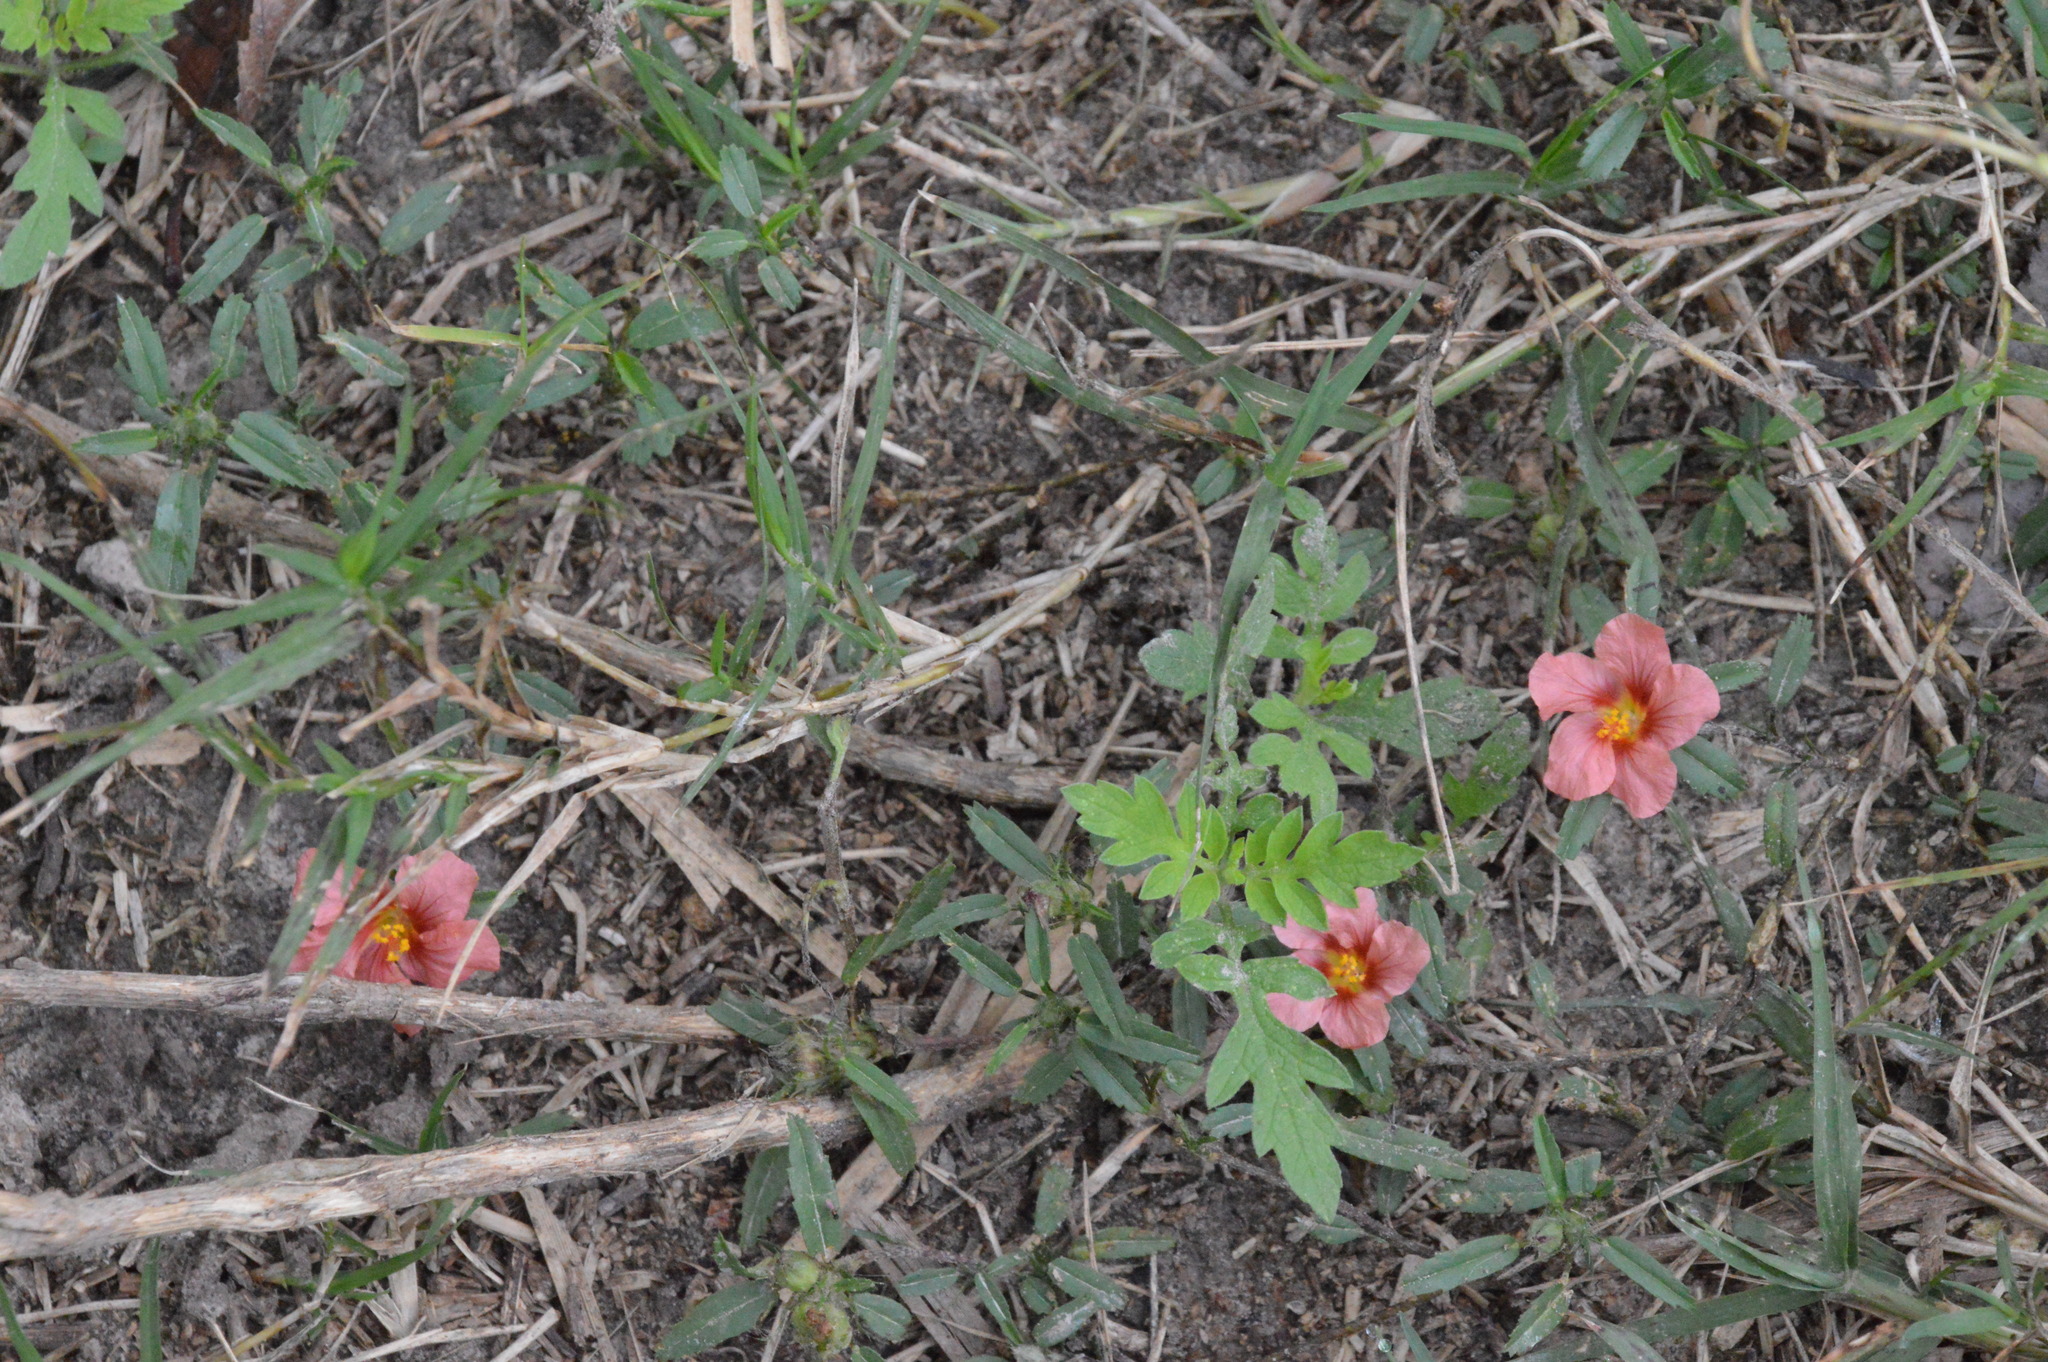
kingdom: Plantae
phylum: Tracheophyta
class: Magnoliopsida
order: Malvales
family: Malvaceae
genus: Sida
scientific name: Sida ciliaris
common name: Bracted fanpetals
